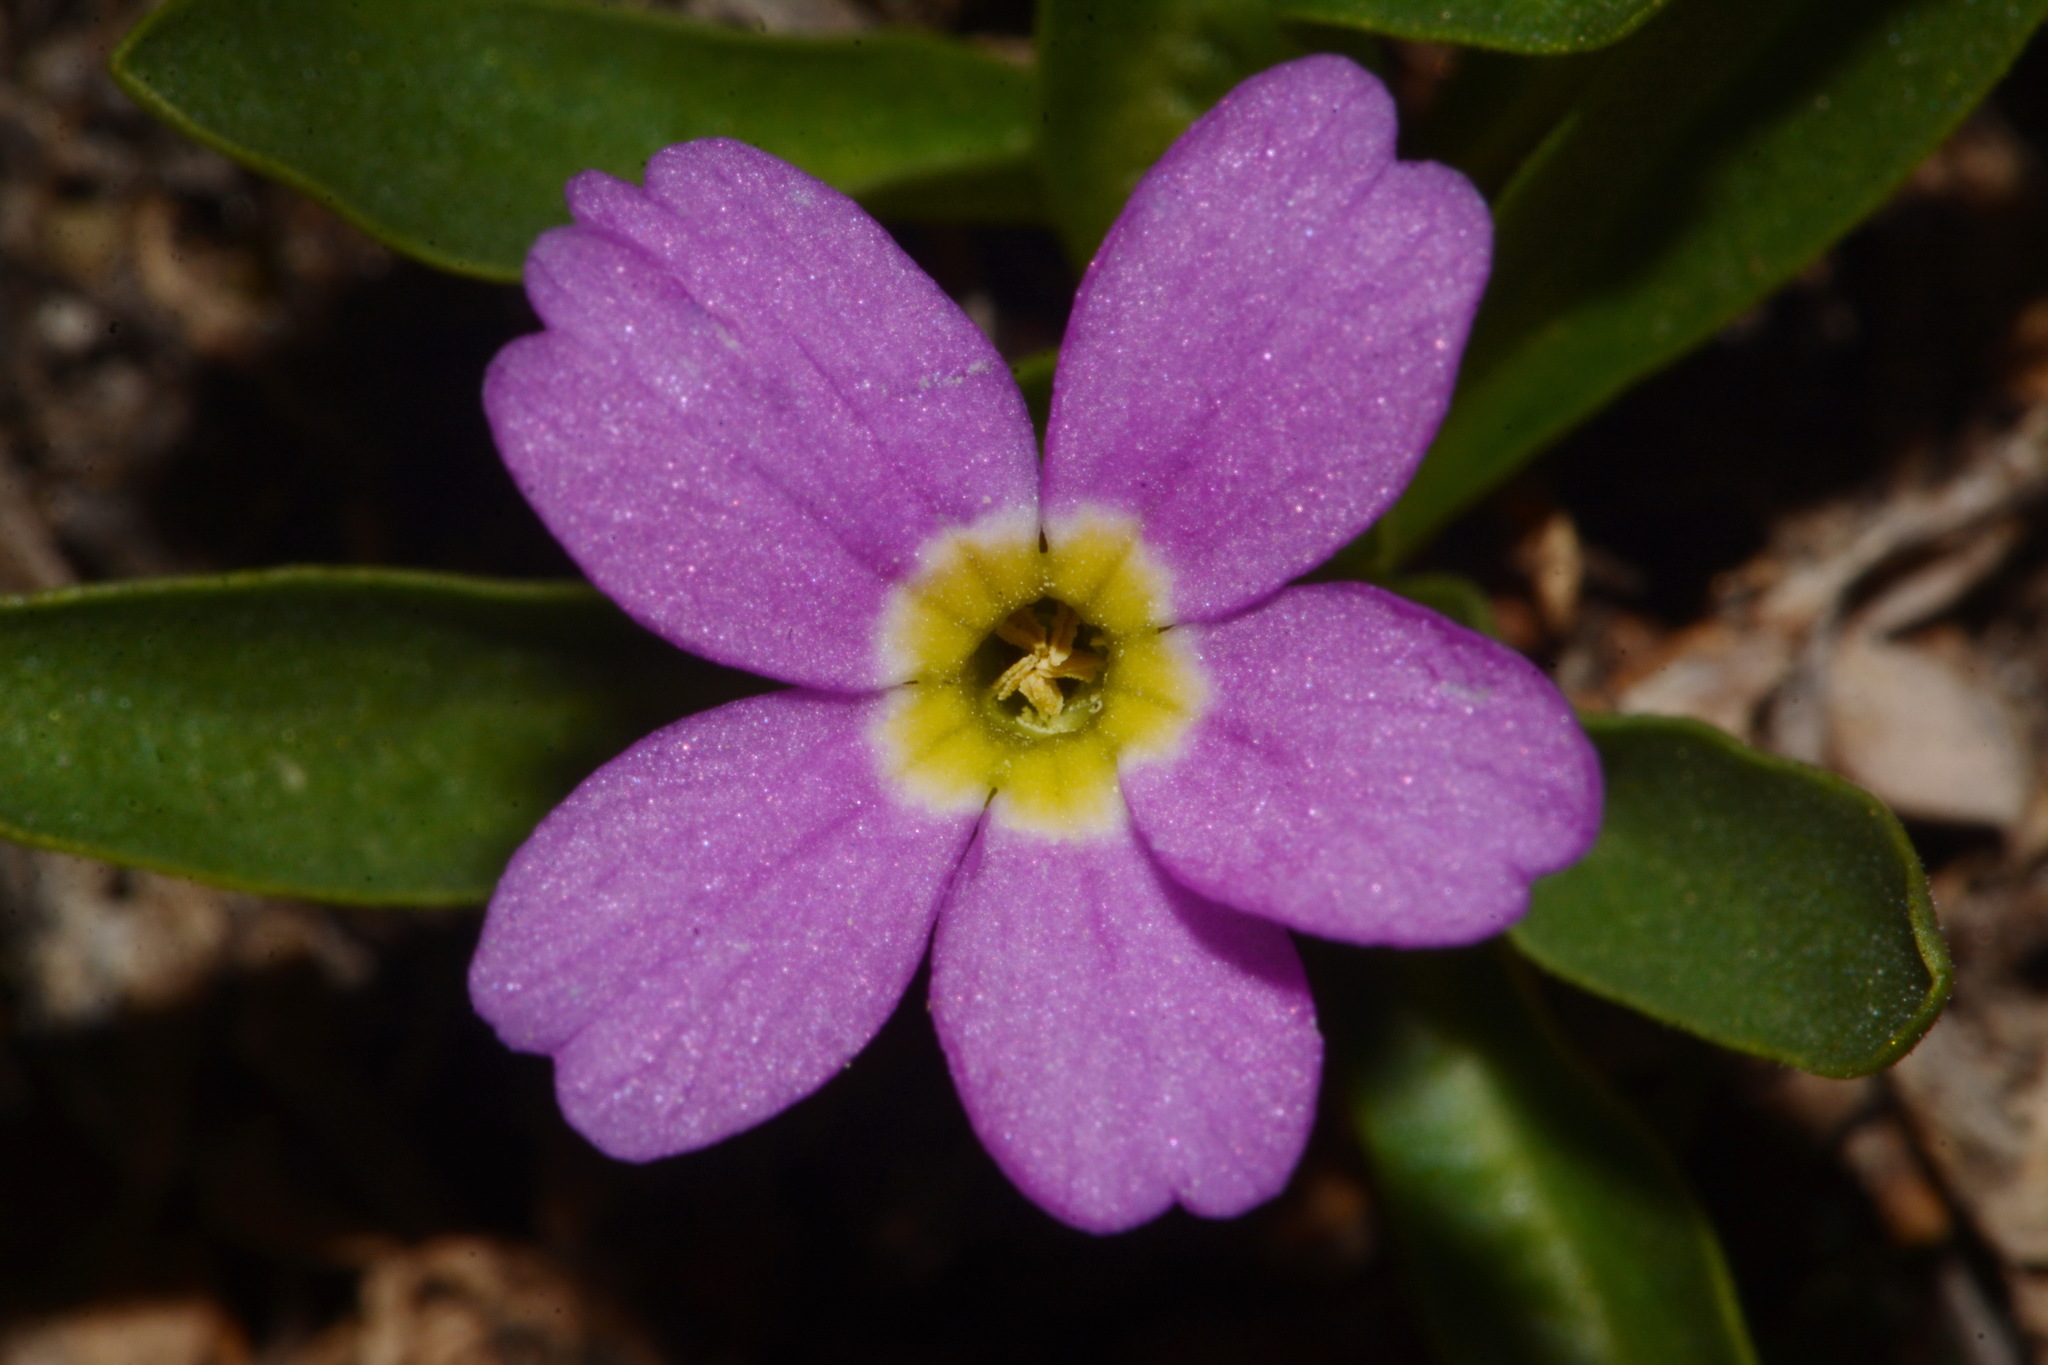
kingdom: Plantae
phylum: Tracheophyta
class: Magnoliopsida
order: Ericales
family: Primulaceae
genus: Primula
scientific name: Primula angustifolia
